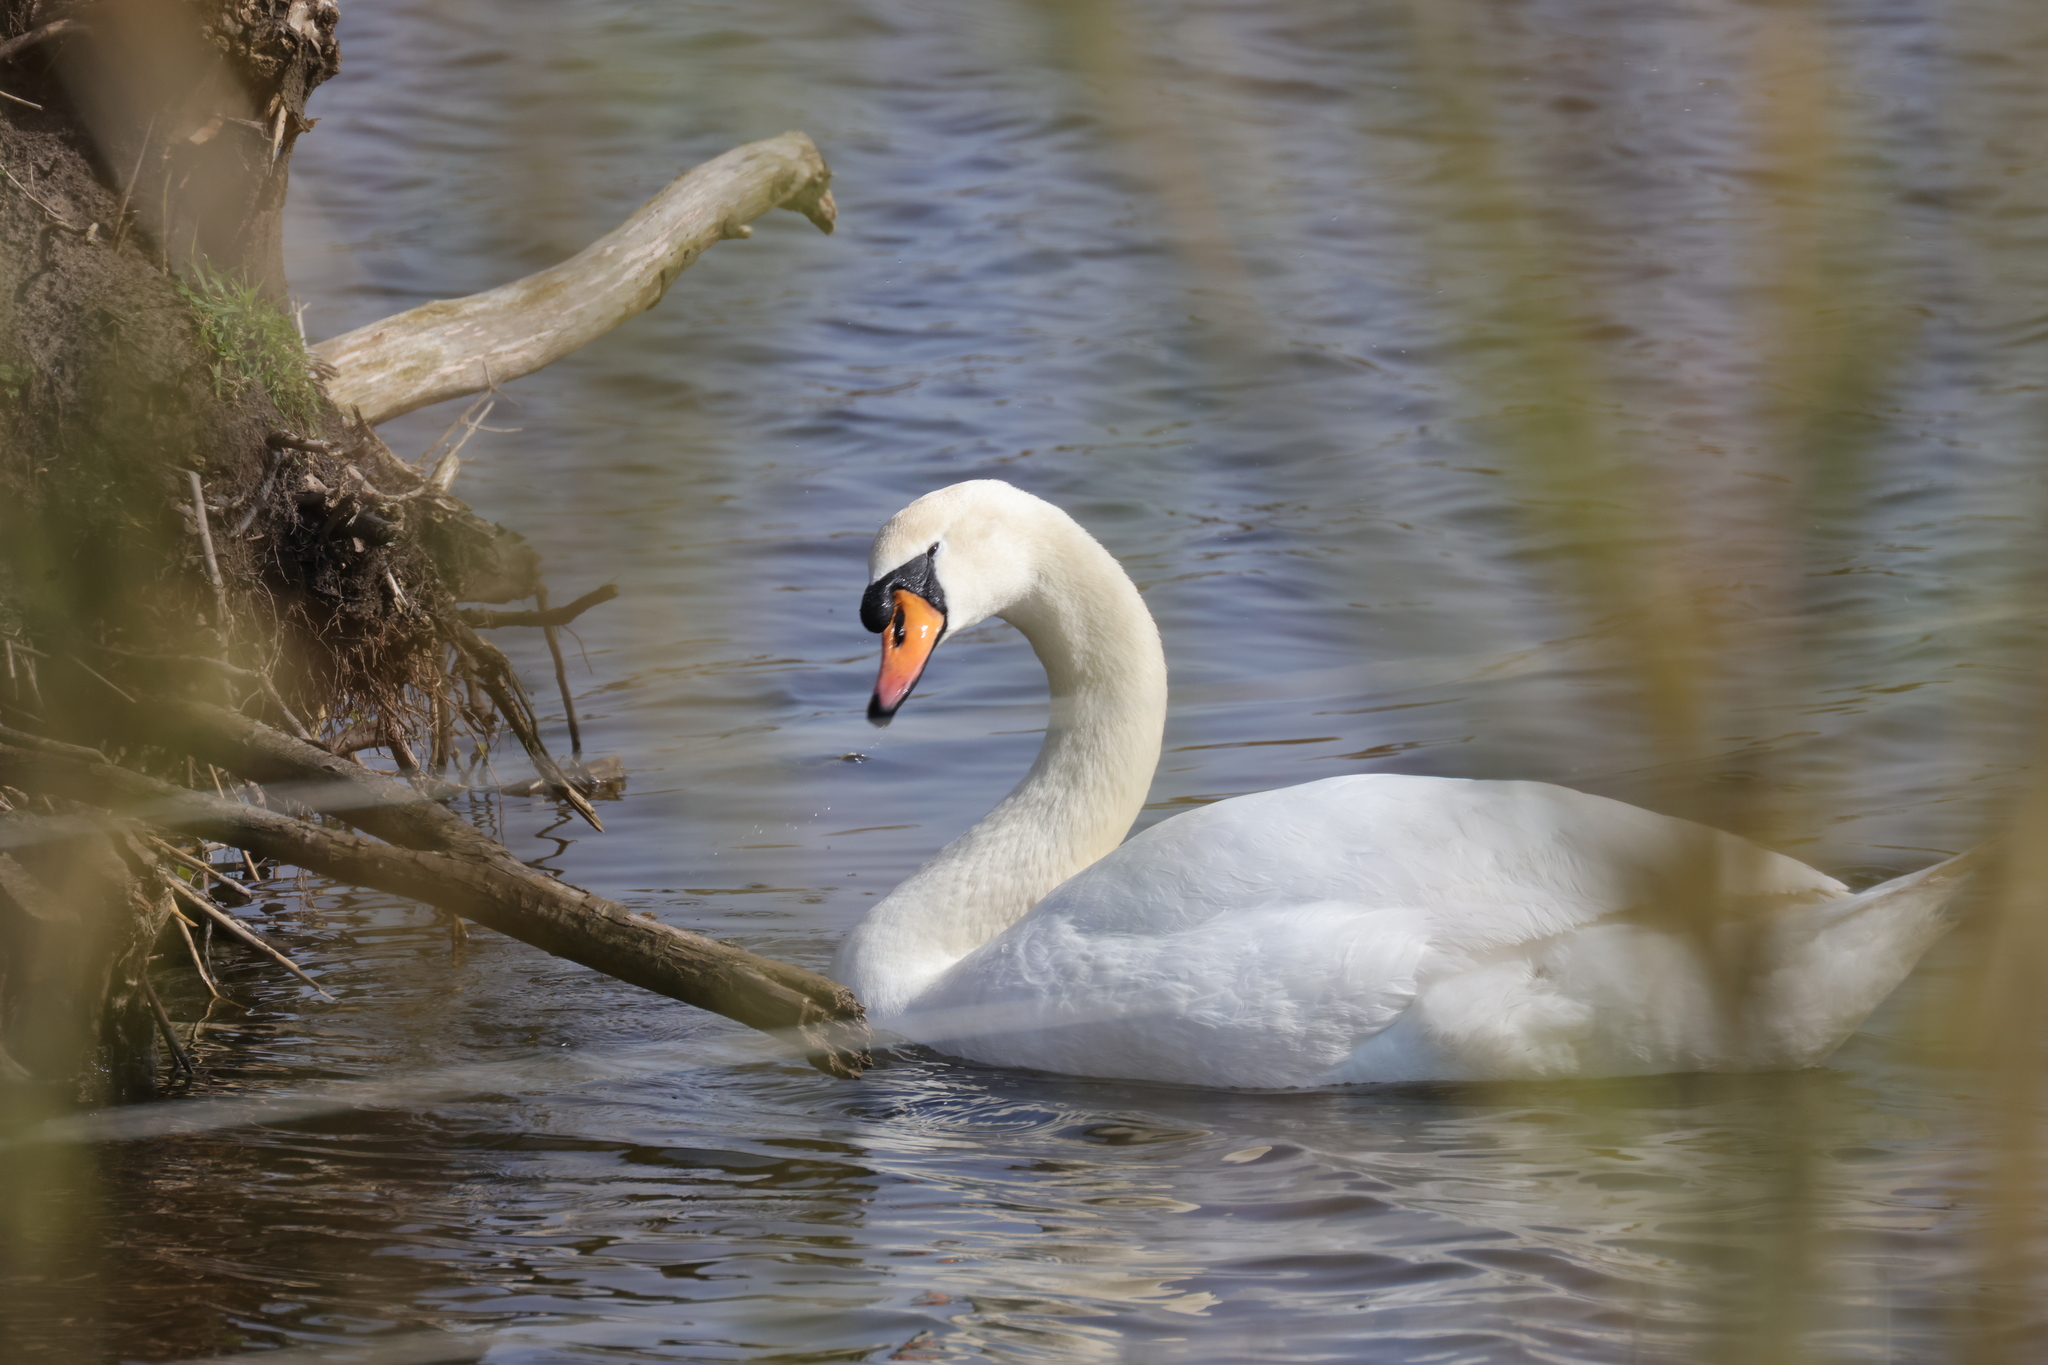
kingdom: Animalia
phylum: Chordata
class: Aves
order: Anseriformes
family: Anatidae
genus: Cygnus
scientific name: Cygnus olor
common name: Mute swan
